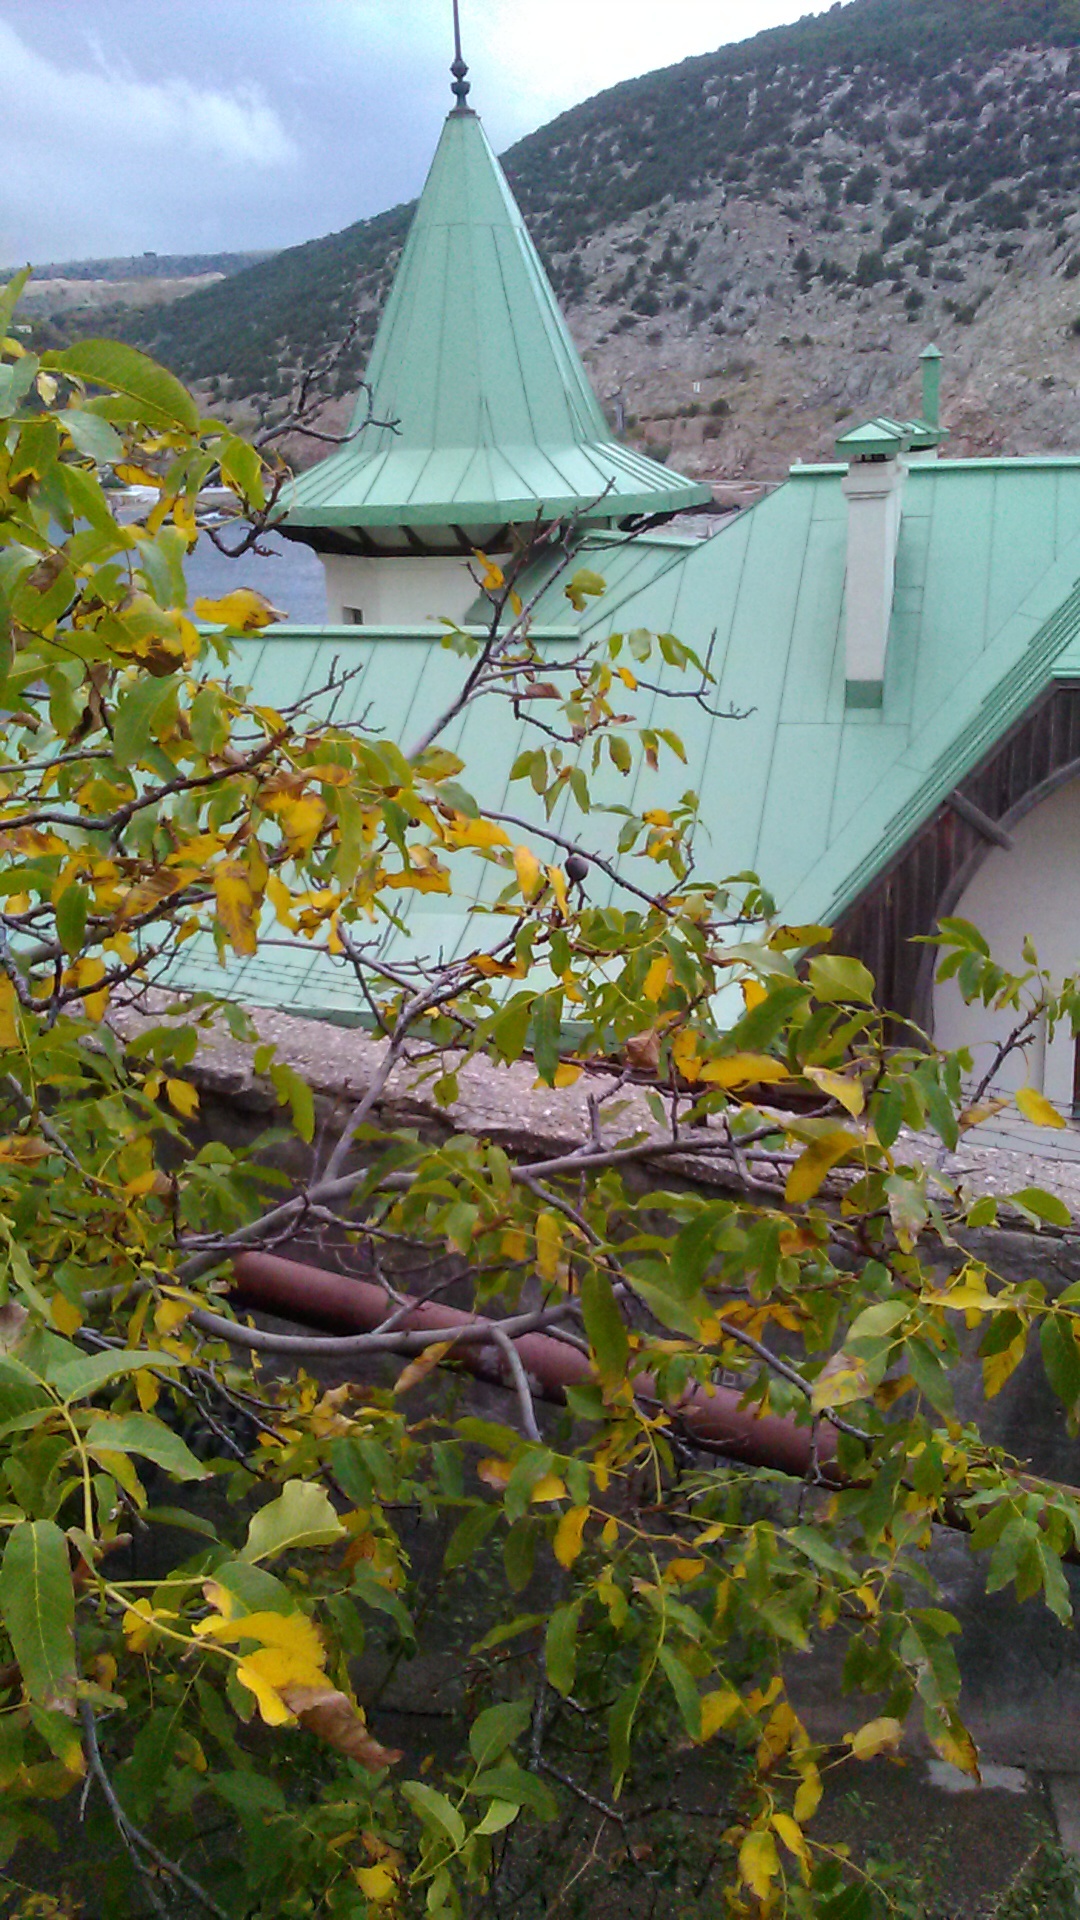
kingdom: Plantae
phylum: Tracheophyta
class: Magnoliopsida
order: Fagales
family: Juglandaceae
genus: Juglans
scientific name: Juglans regia
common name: Walnut
